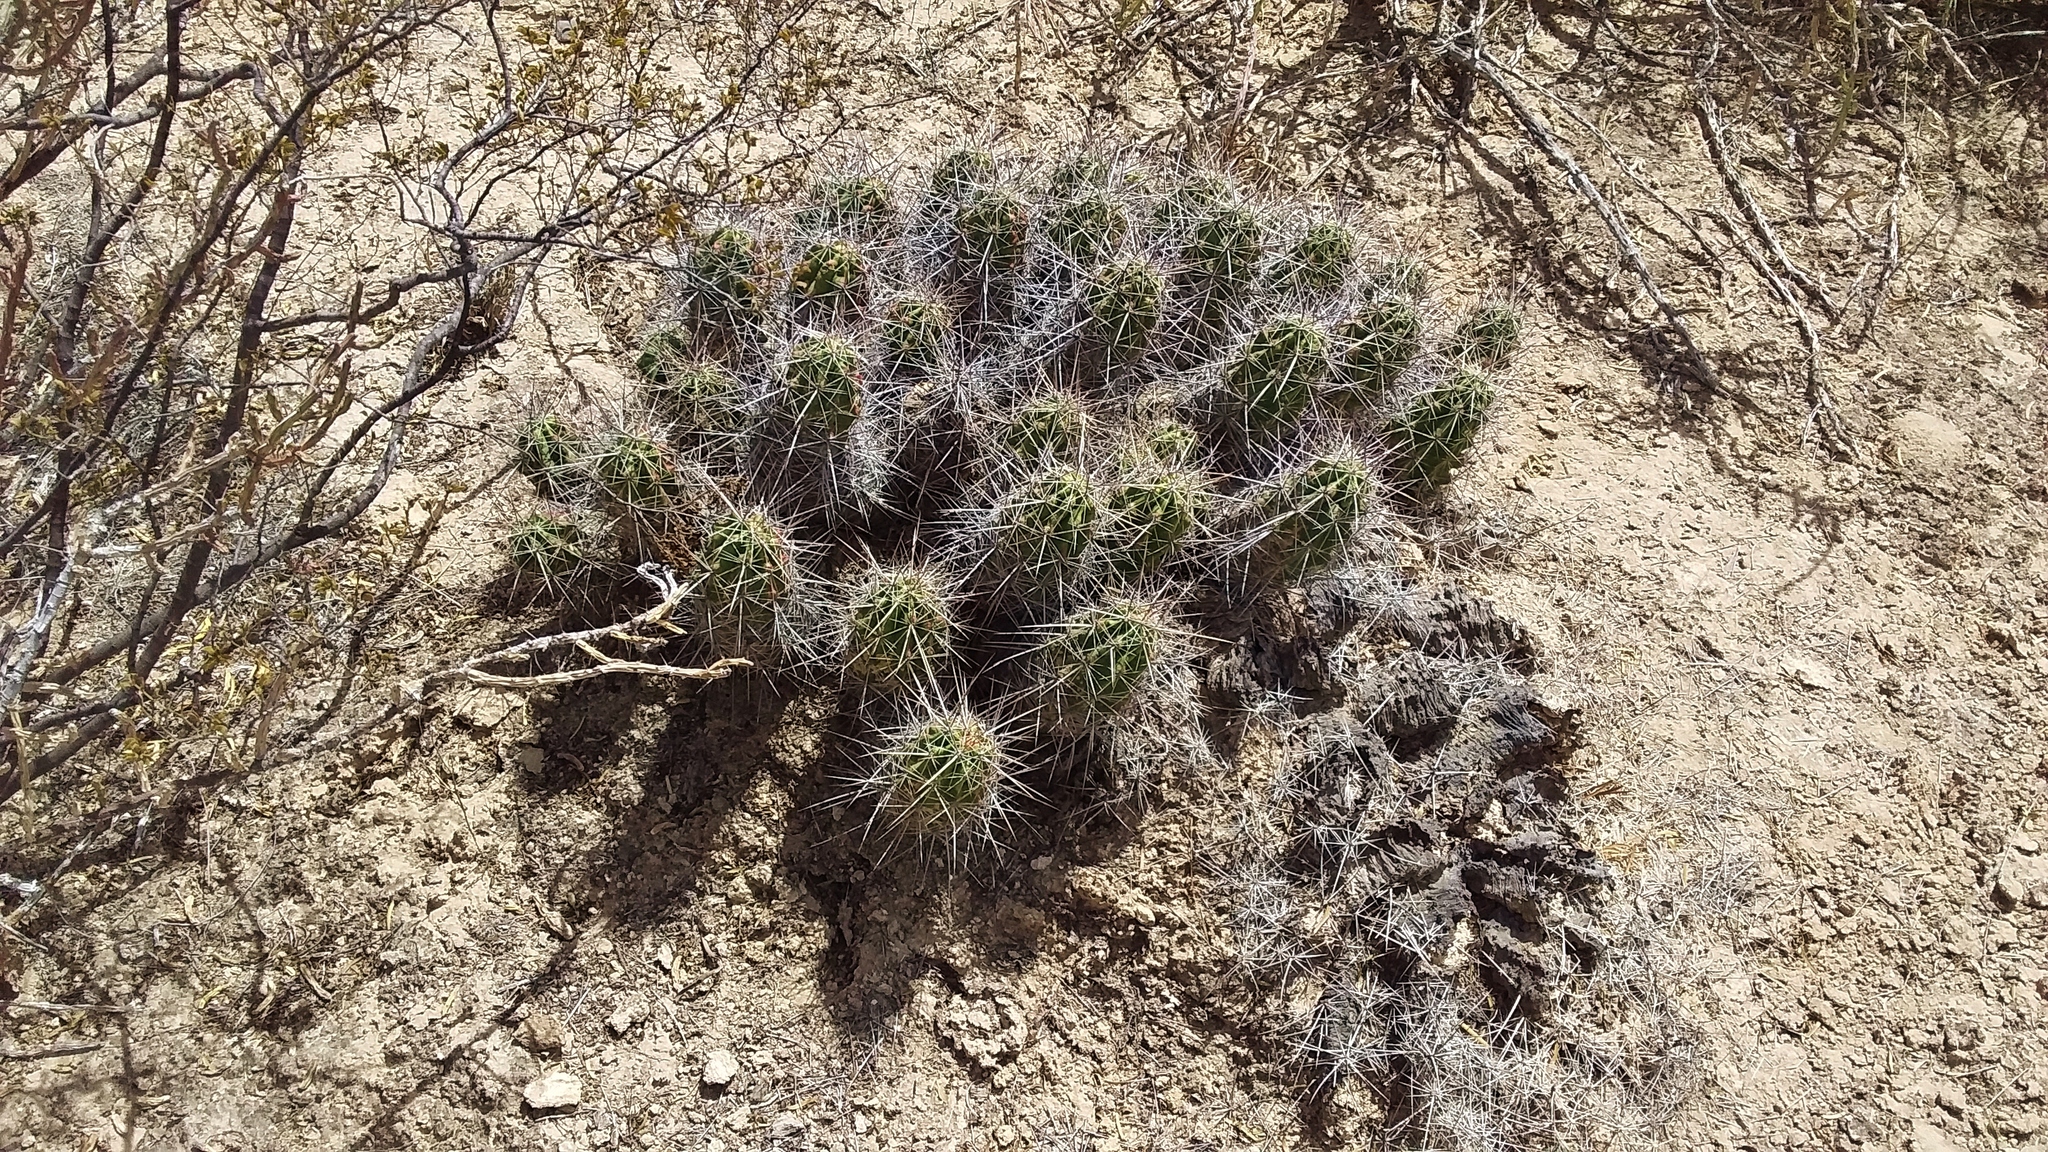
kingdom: Plantae
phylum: Tracheophyta
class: Magnoliopsida
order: Caryophyllales
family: Cactaceae
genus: Echinocereus
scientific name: Echinocereus enneacanthus
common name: Pitaya
